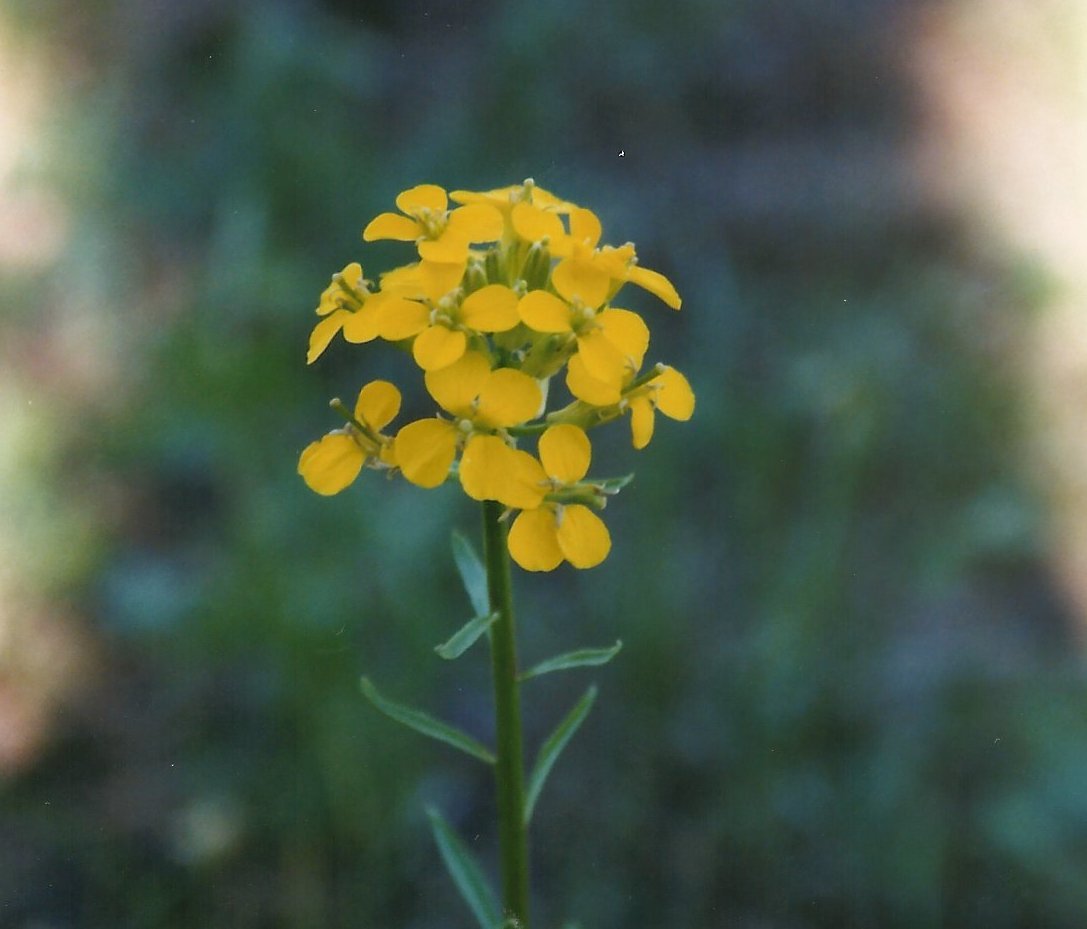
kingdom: Plantae
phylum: Tracheophyta
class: Magnoliopsida
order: Brassicales
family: Brassicaceae
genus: Erysimum
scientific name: Erysimum capitatum
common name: Western wallflower
